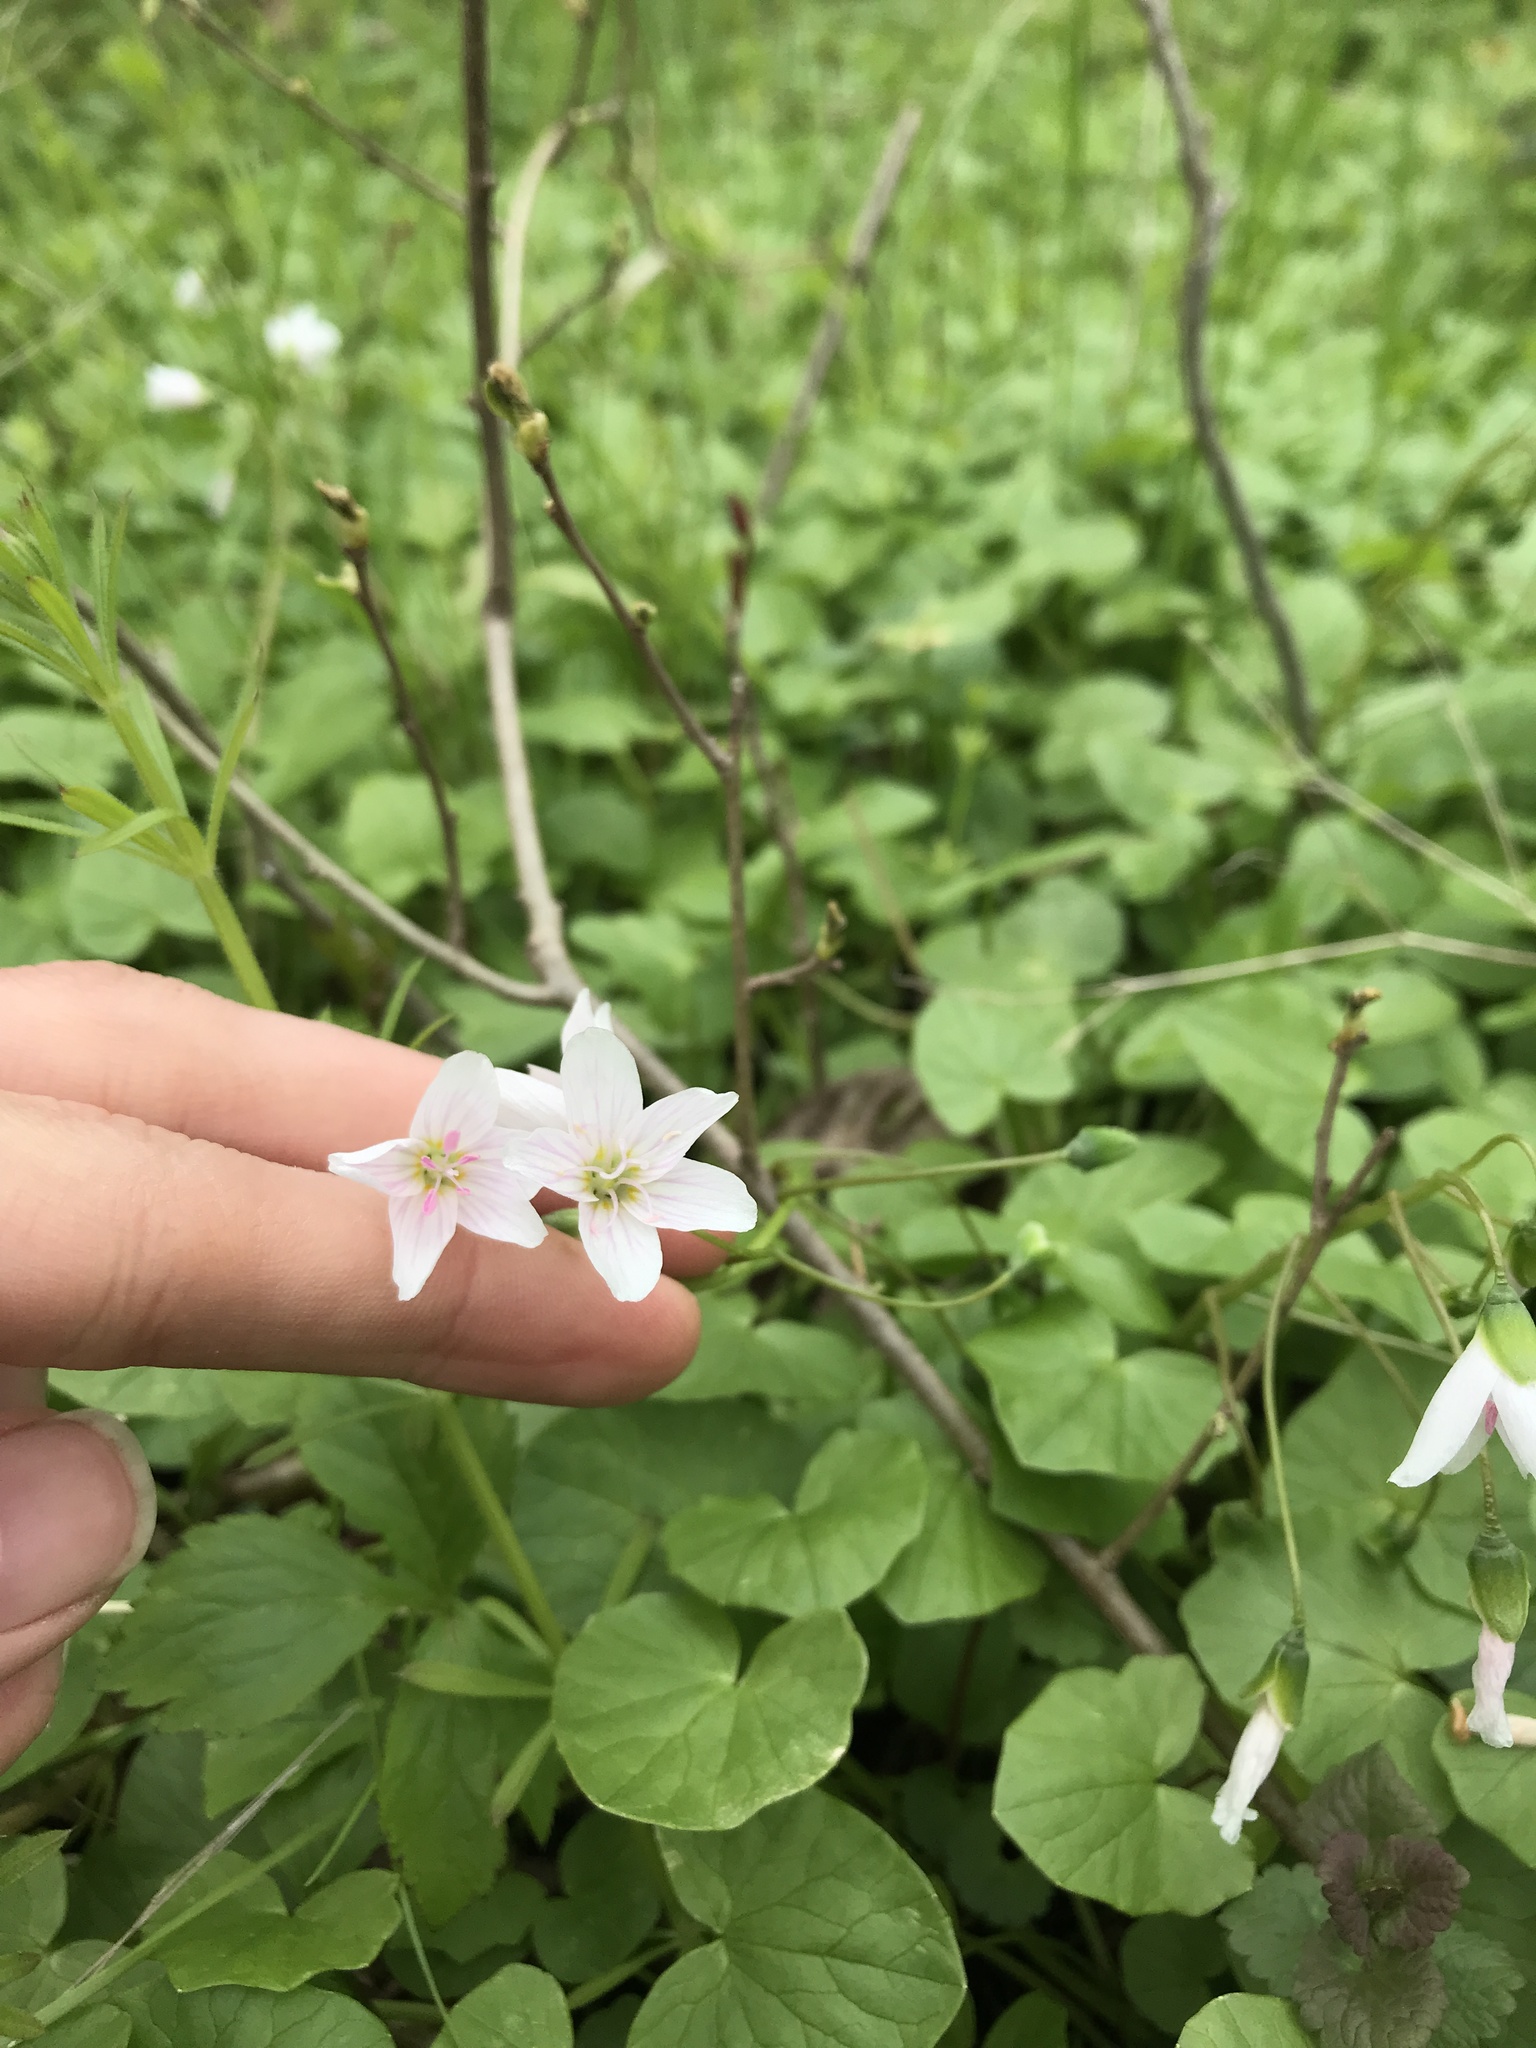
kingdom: Plantae
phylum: Tracheophyta
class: Magnoliopsida
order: Caryophyllales
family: Montiaceae
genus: Claytonia
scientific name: Claytonia virginica
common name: Virginia springbeauty
